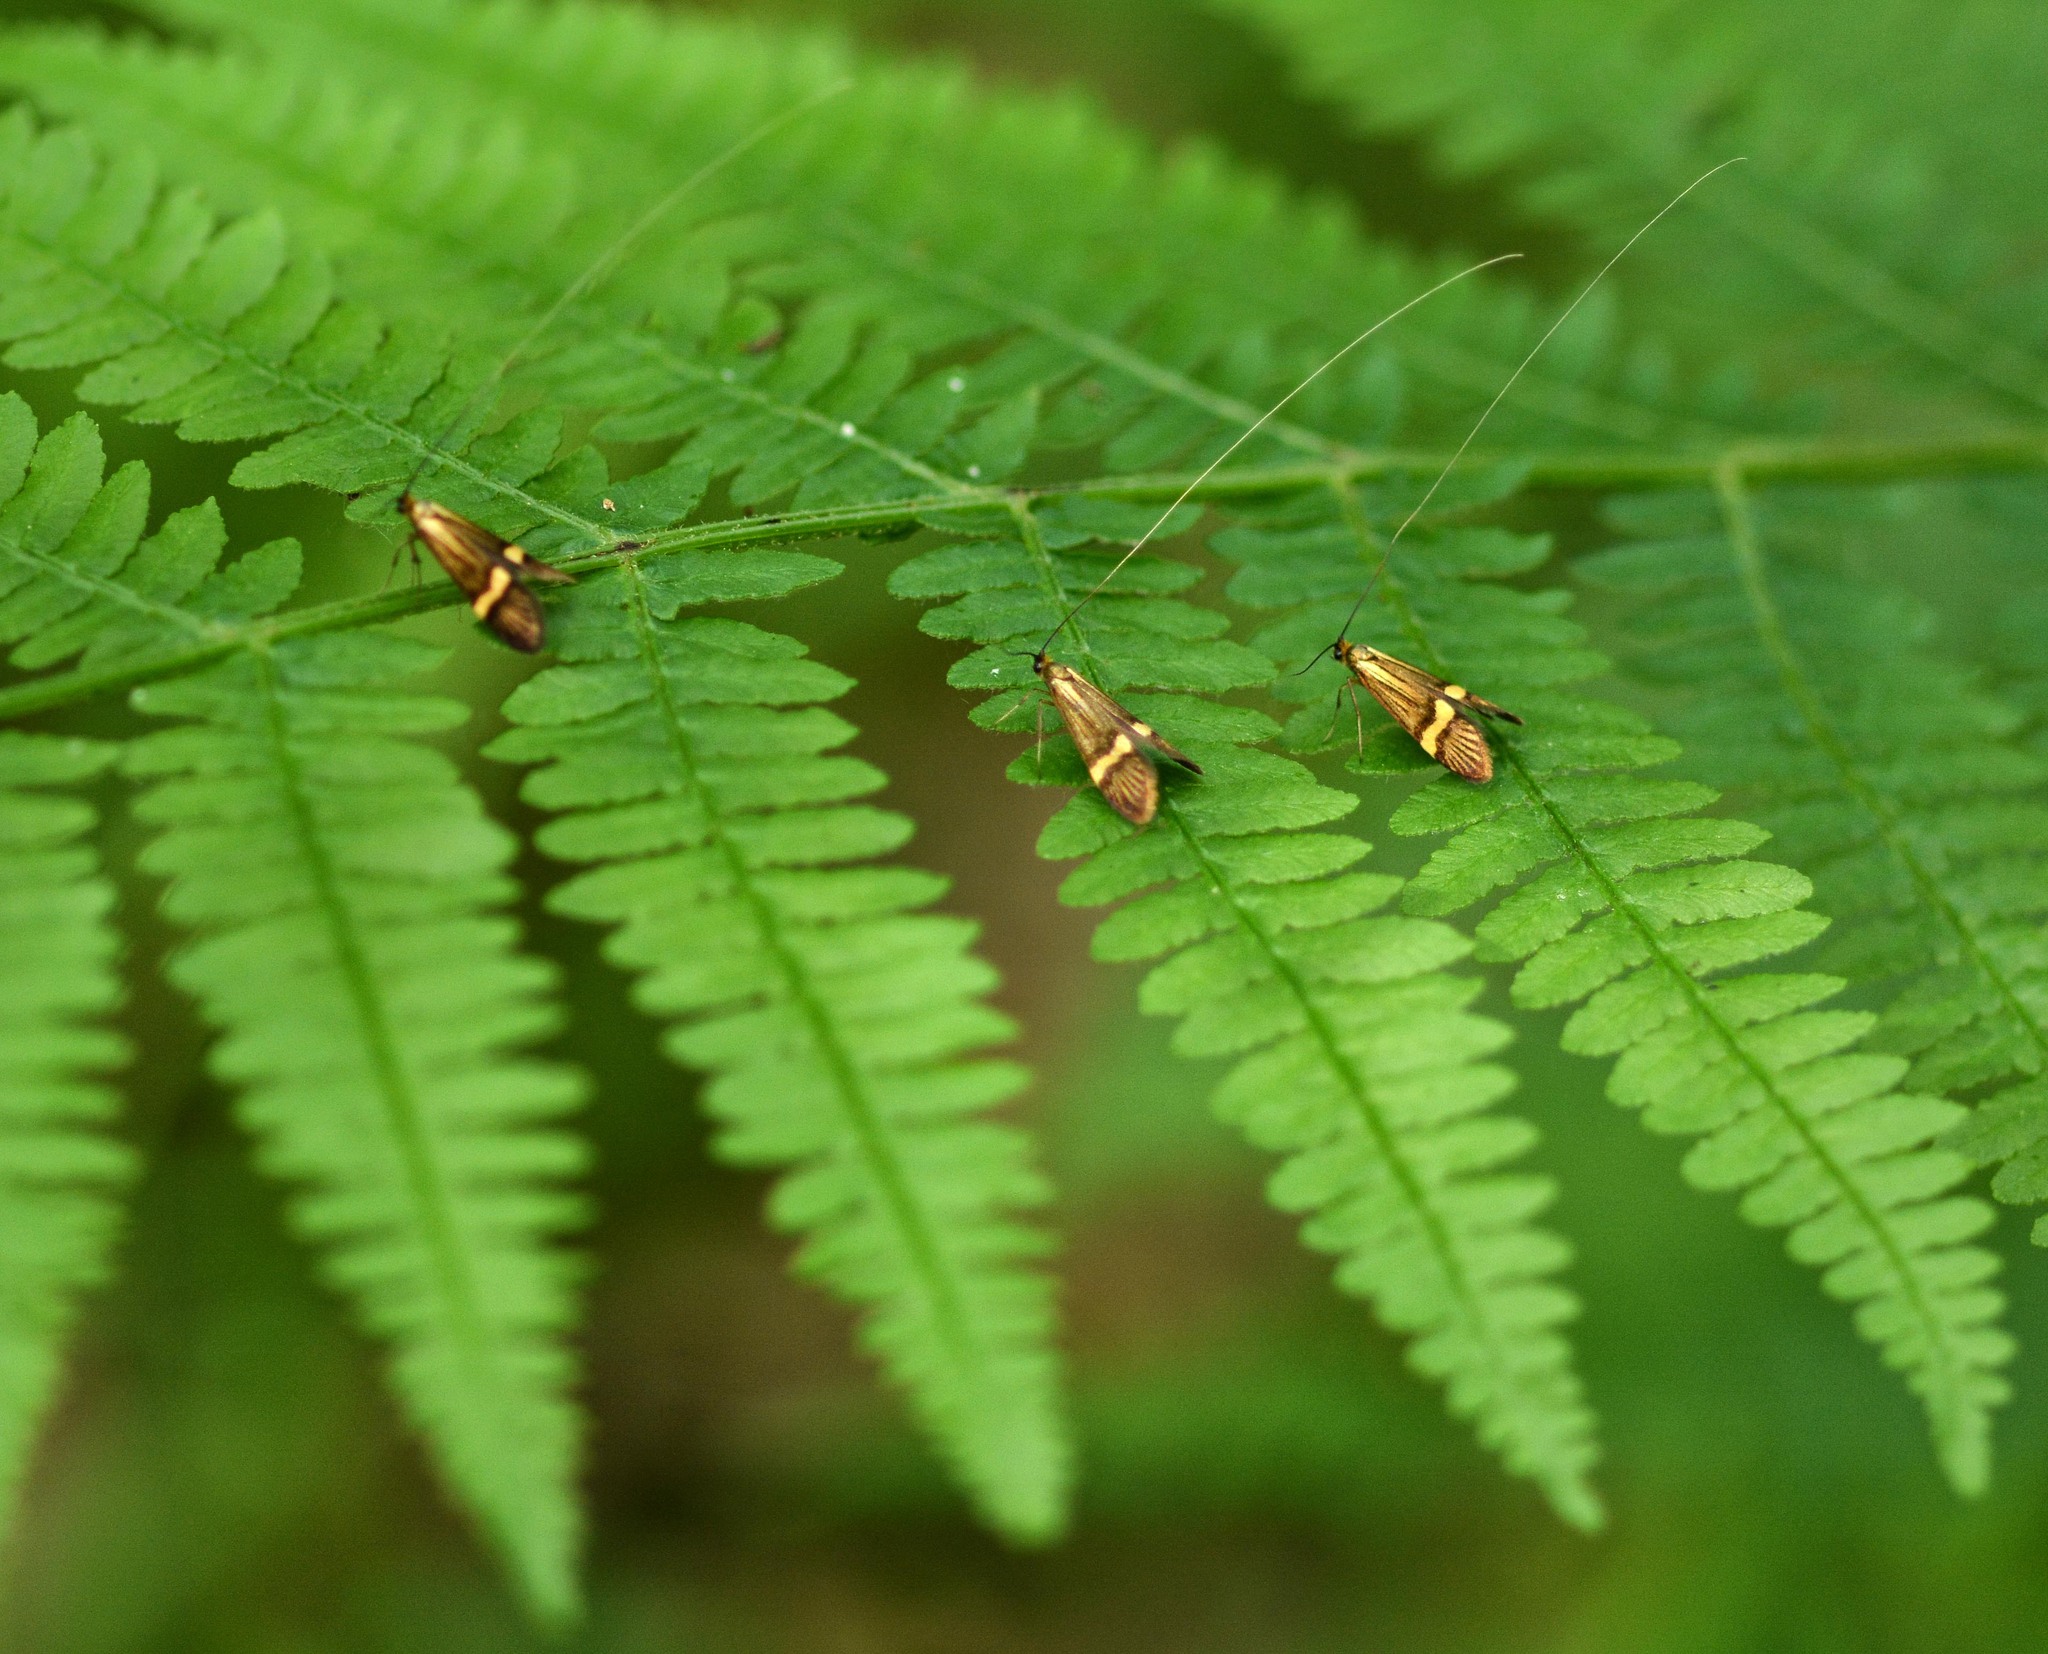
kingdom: Animalia
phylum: Arthropoda
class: Insecta
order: Lepidoptera
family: Adelidae
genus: Nemophora
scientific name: Nemophora degeerella
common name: Yellow-barred long-horn
